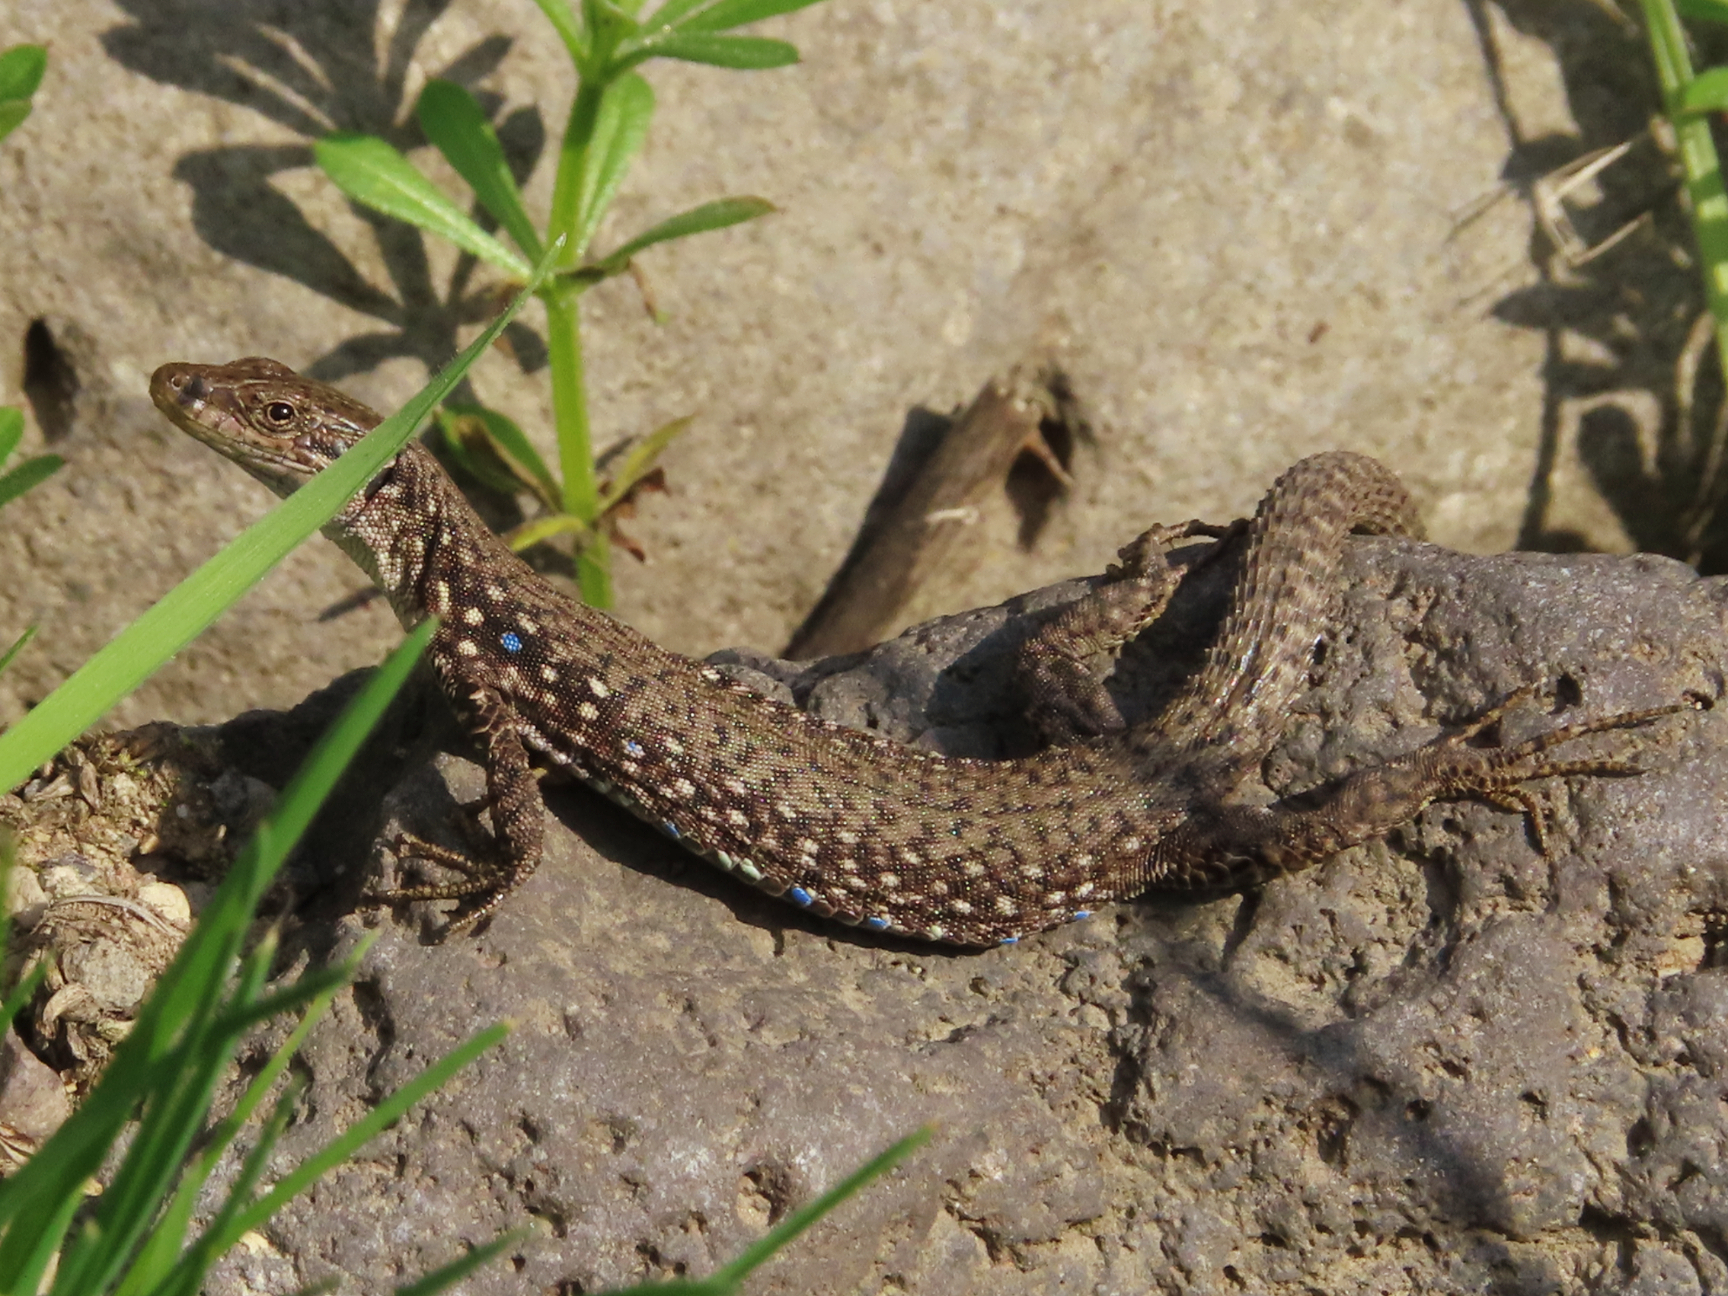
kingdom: Animalia
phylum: Chordata
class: Squamata
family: Lacertidae
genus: Darevskia
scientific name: Darevskia
